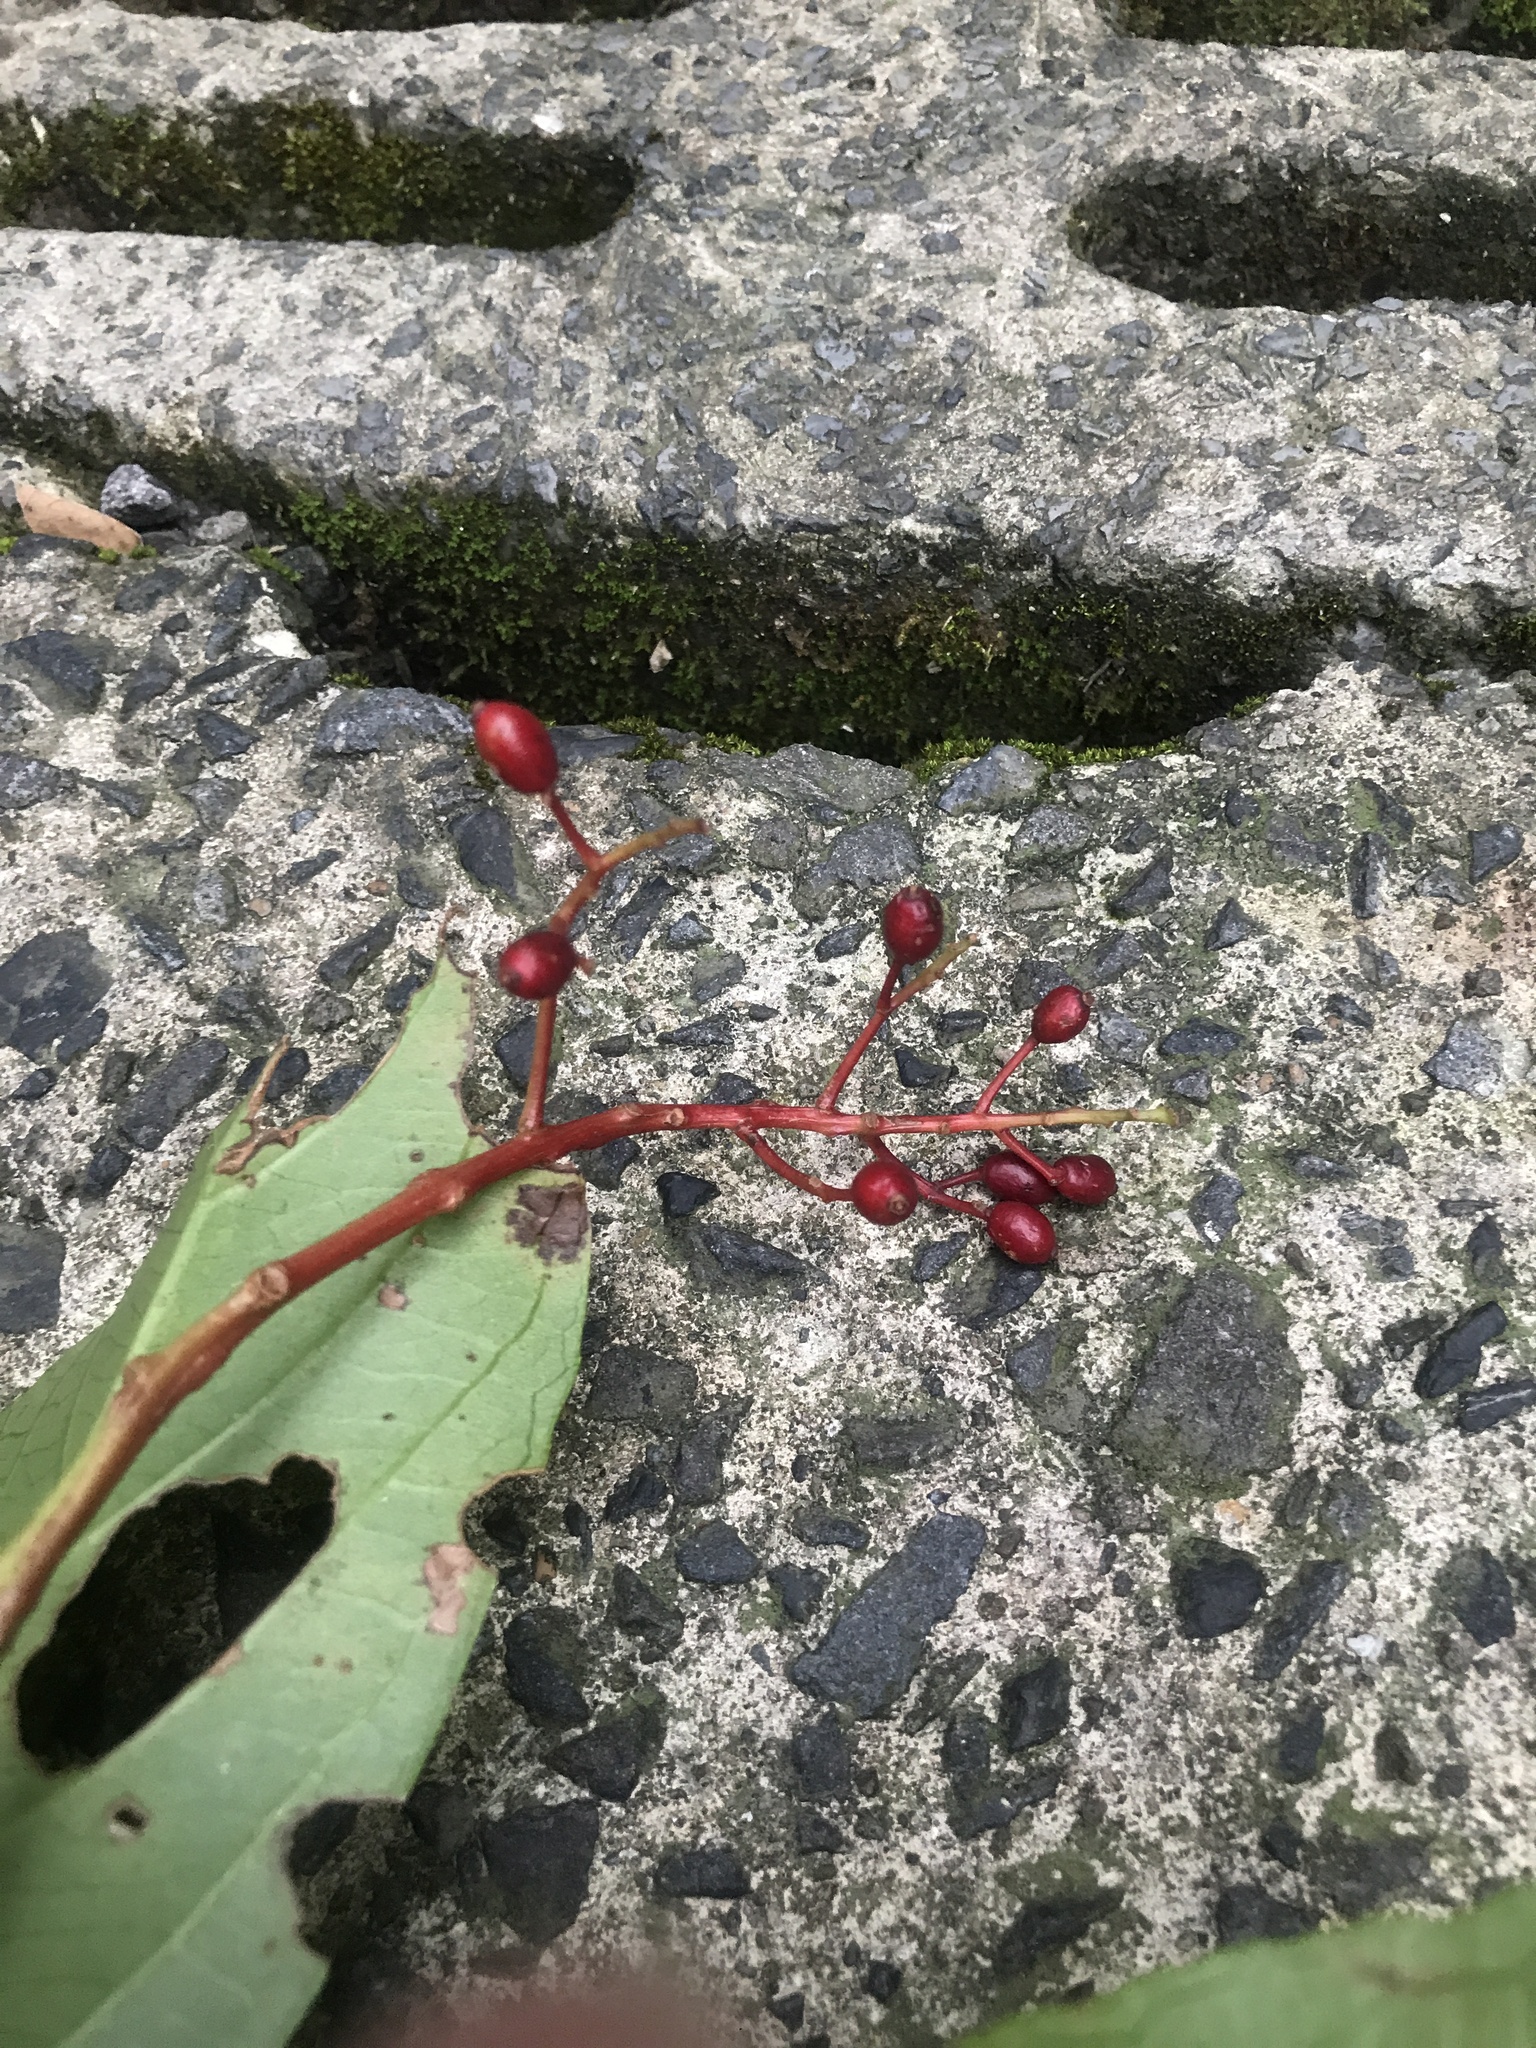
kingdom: Plantae
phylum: Tracheophyta
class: Magnoliopsida
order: Dipsacales
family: Viburnaceae
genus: Viburnum
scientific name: Viburnum odoratissimum
